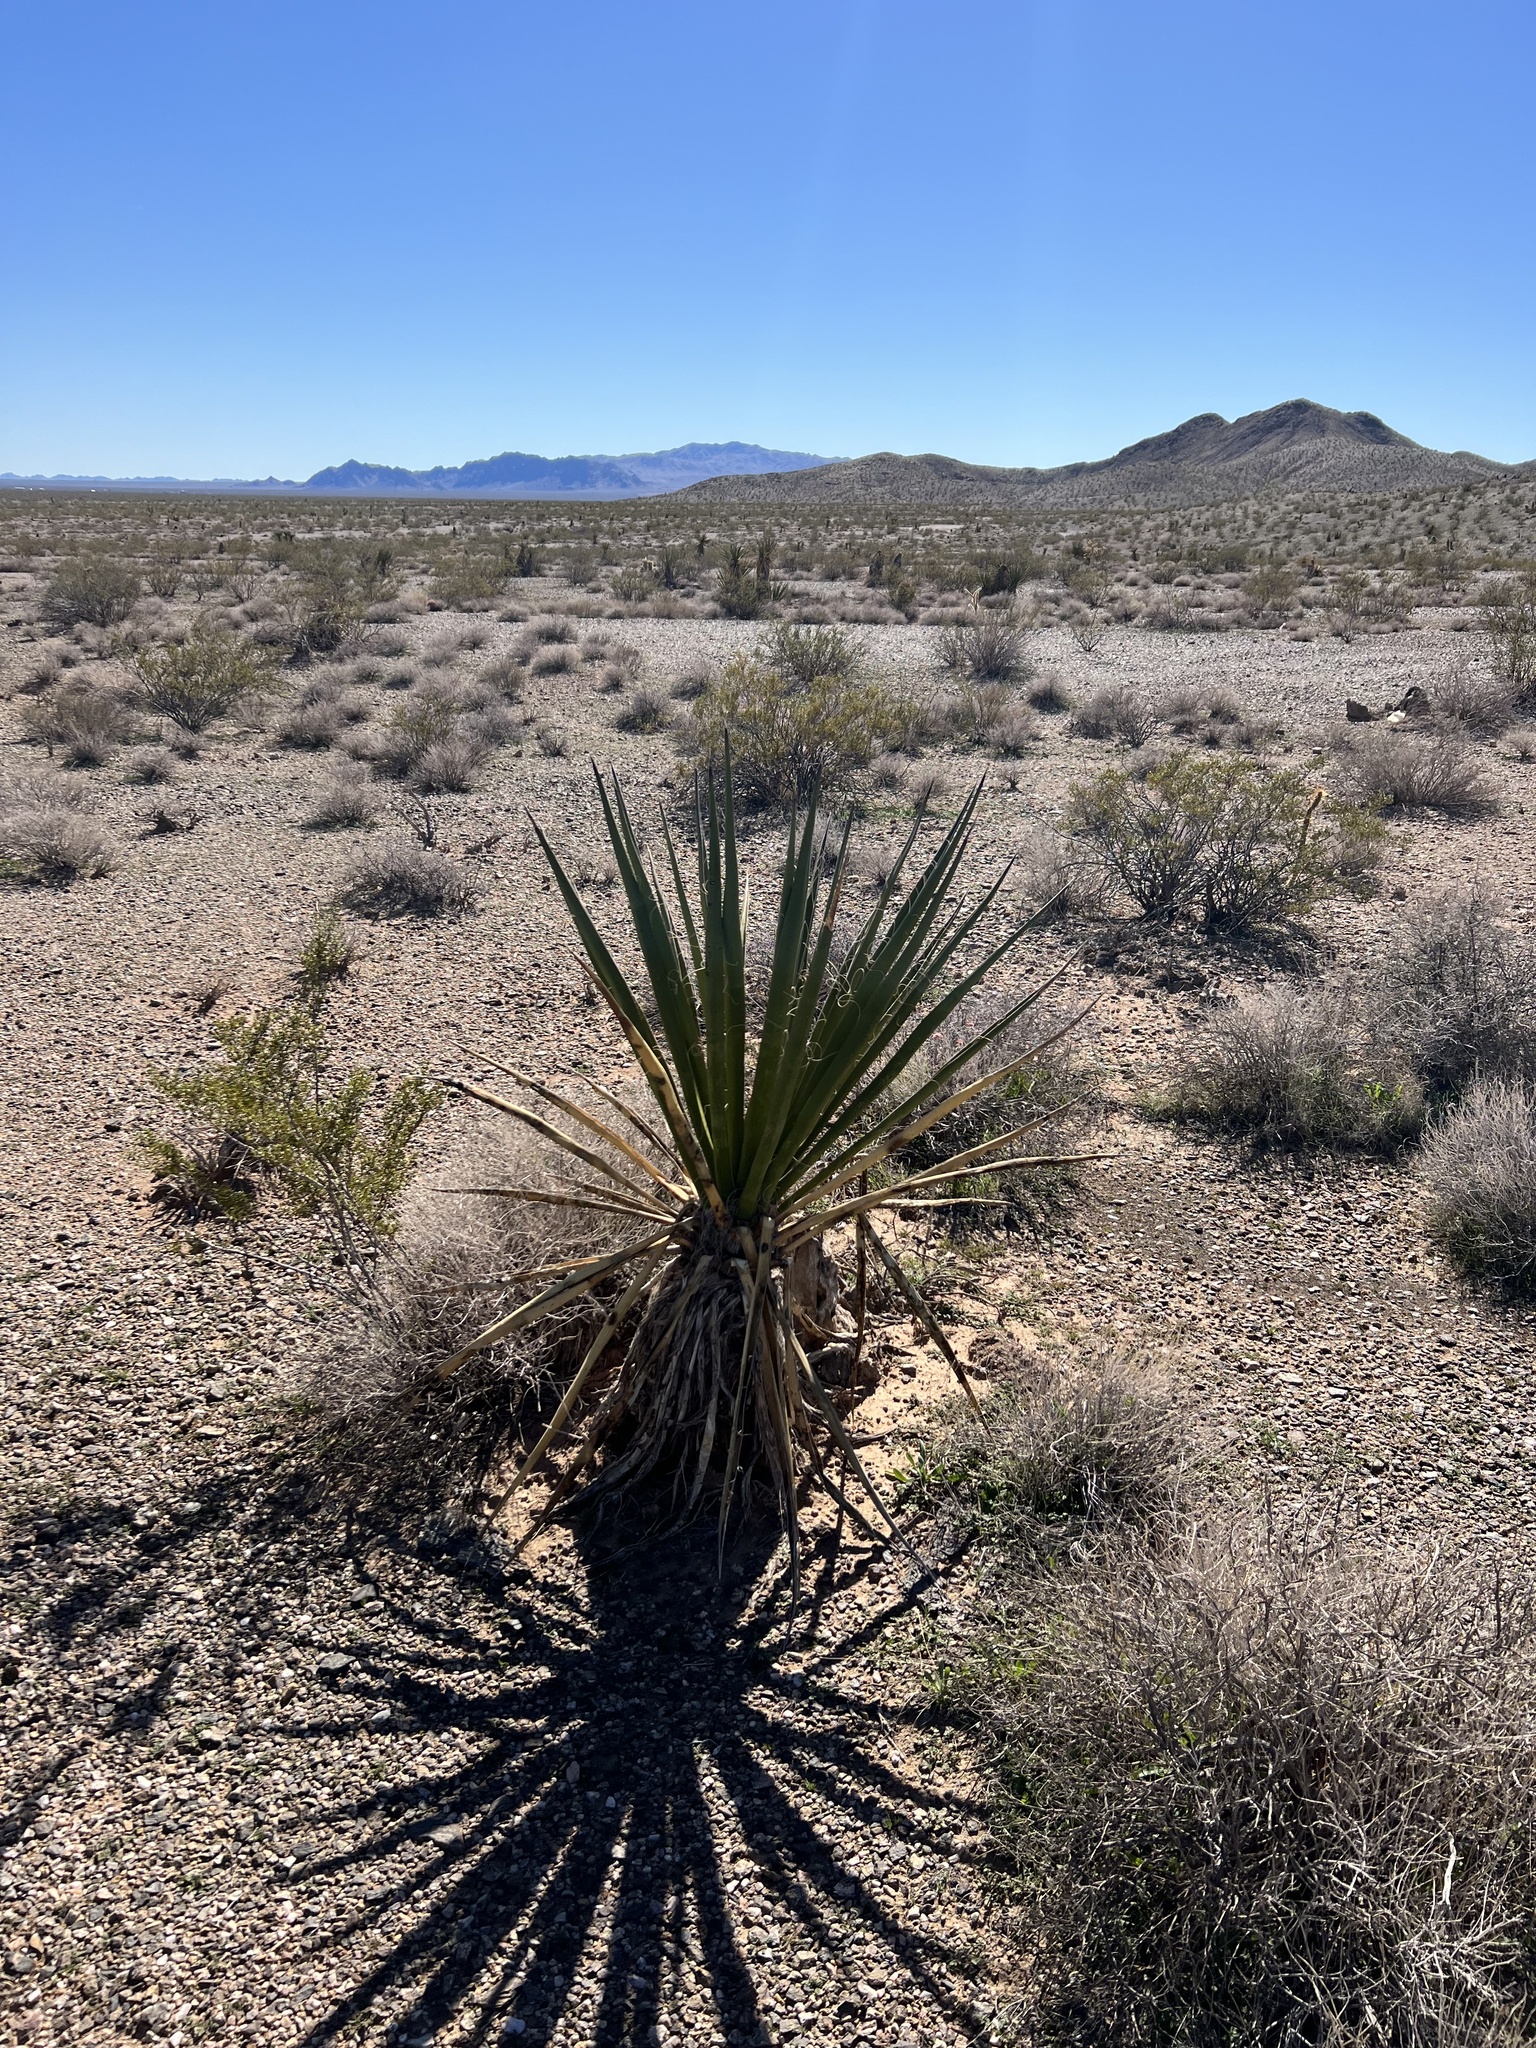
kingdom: Plantae
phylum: Tracheophyta
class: Liliopsida
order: Asparagales
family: Asparagaceae
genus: Yucca
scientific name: Yucca schidigera
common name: Mojave yucca
